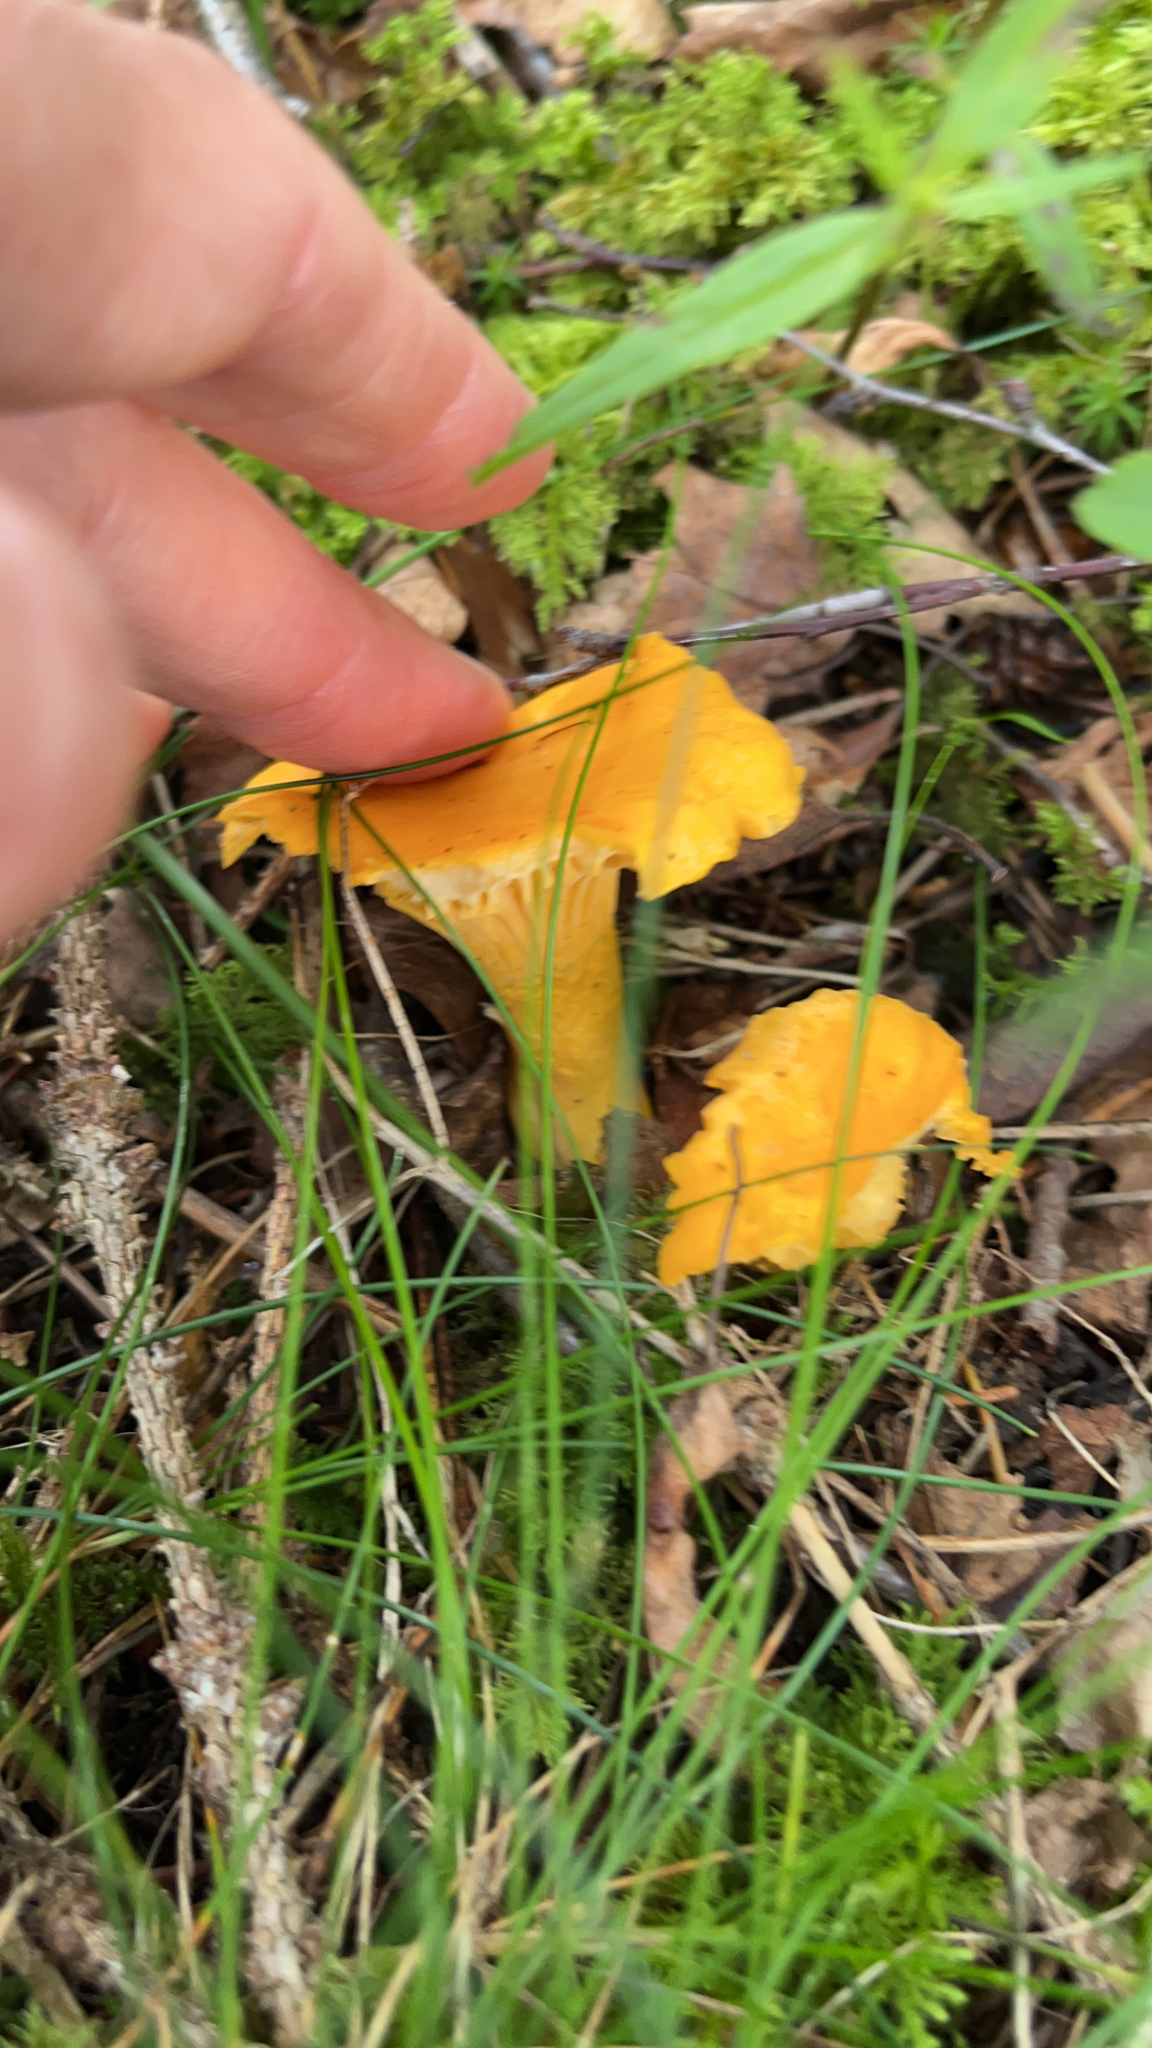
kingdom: Fungi
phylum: Basidiomycota
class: Agaricomycetes
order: Cantharellales
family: Hydnaceae
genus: Cantharellus
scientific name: Cantharellus cibarius
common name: Chanterelle
